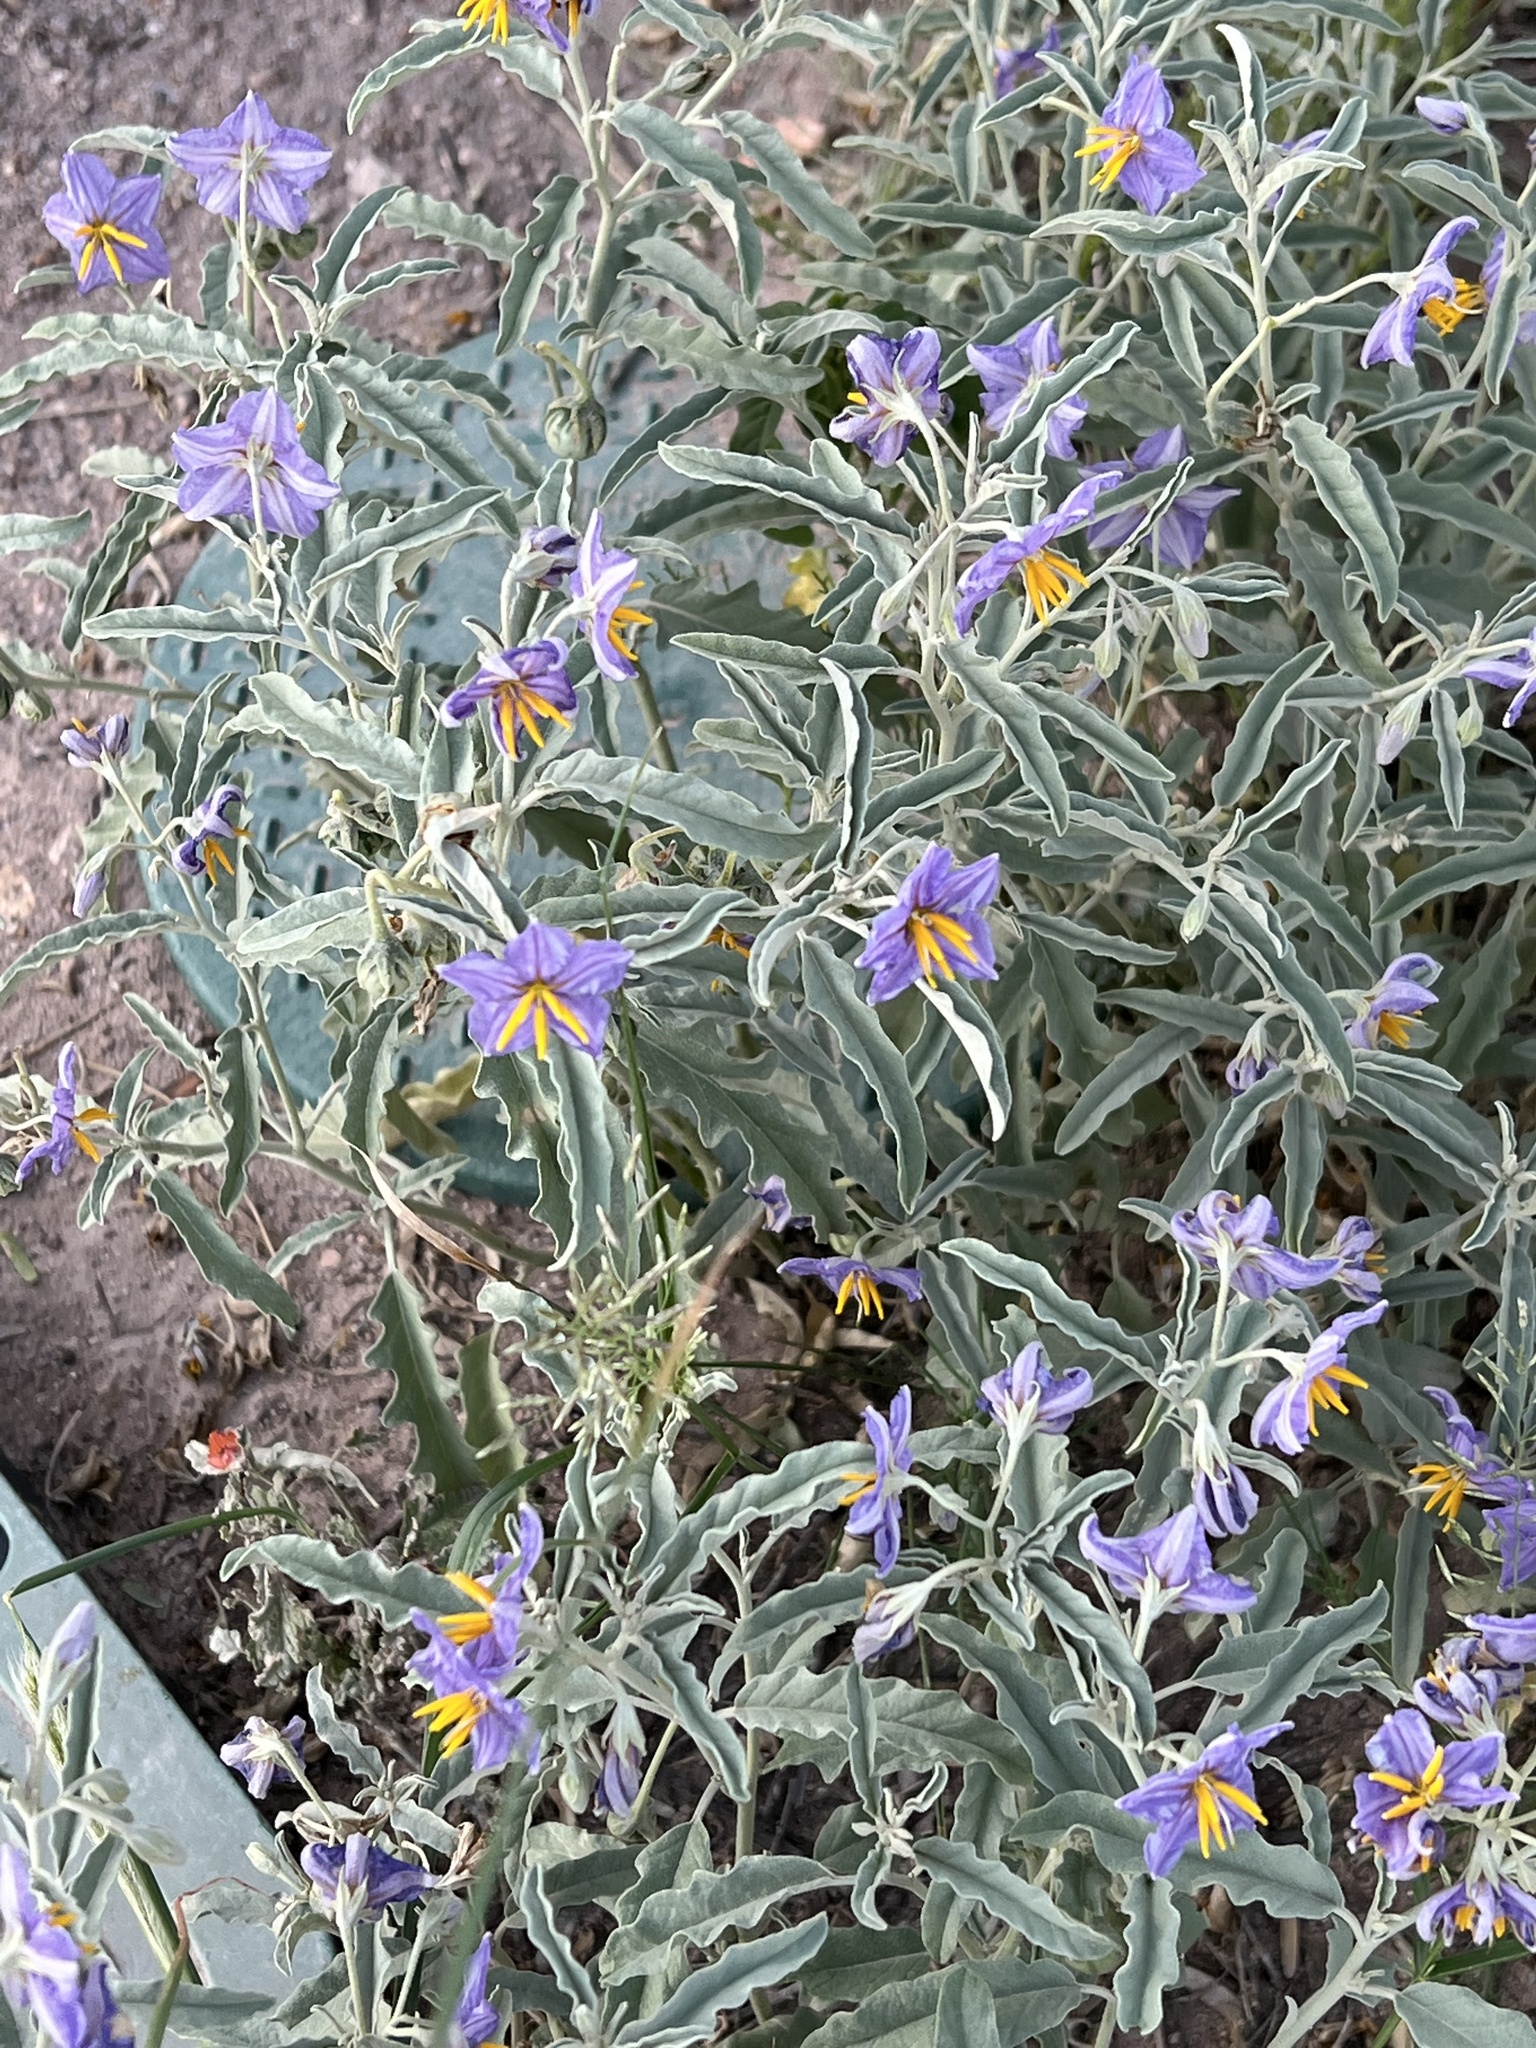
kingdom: Plantae
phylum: Tracheophyta
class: Magnoliopsida
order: Solanales
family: Solanaceae
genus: Solanum
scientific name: Solanum elaeagnifolium
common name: Silverleaf nightshade
